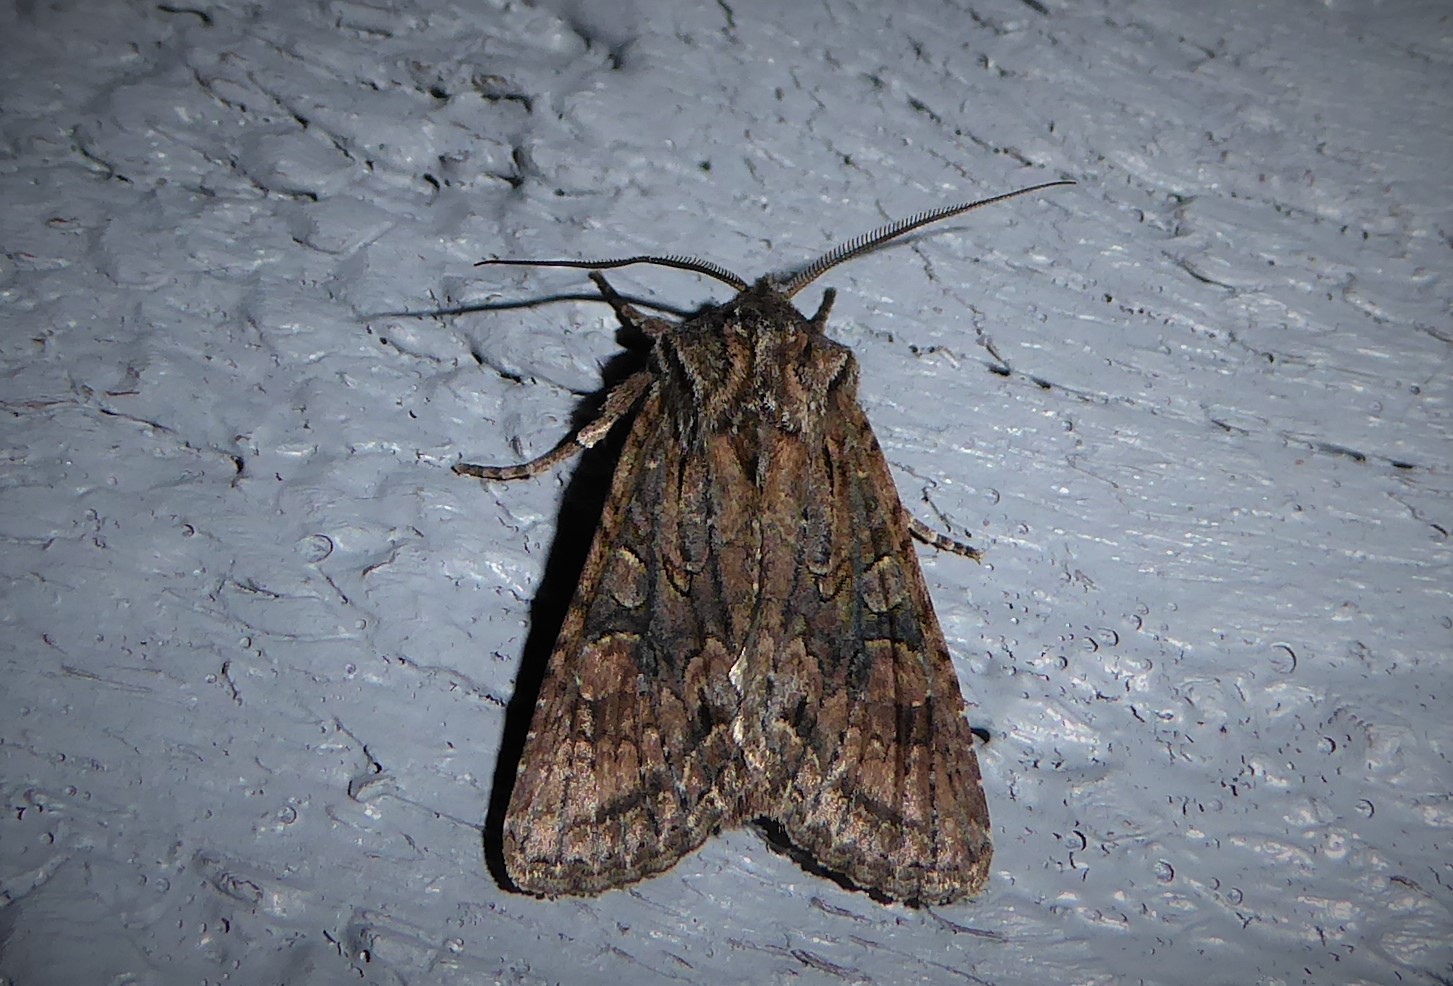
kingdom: Animalia
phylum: Arthropoda
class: Insecta
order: Lepidoptera
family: Noctuidae
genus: Ichneutica
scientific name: Ichneutica mutans
